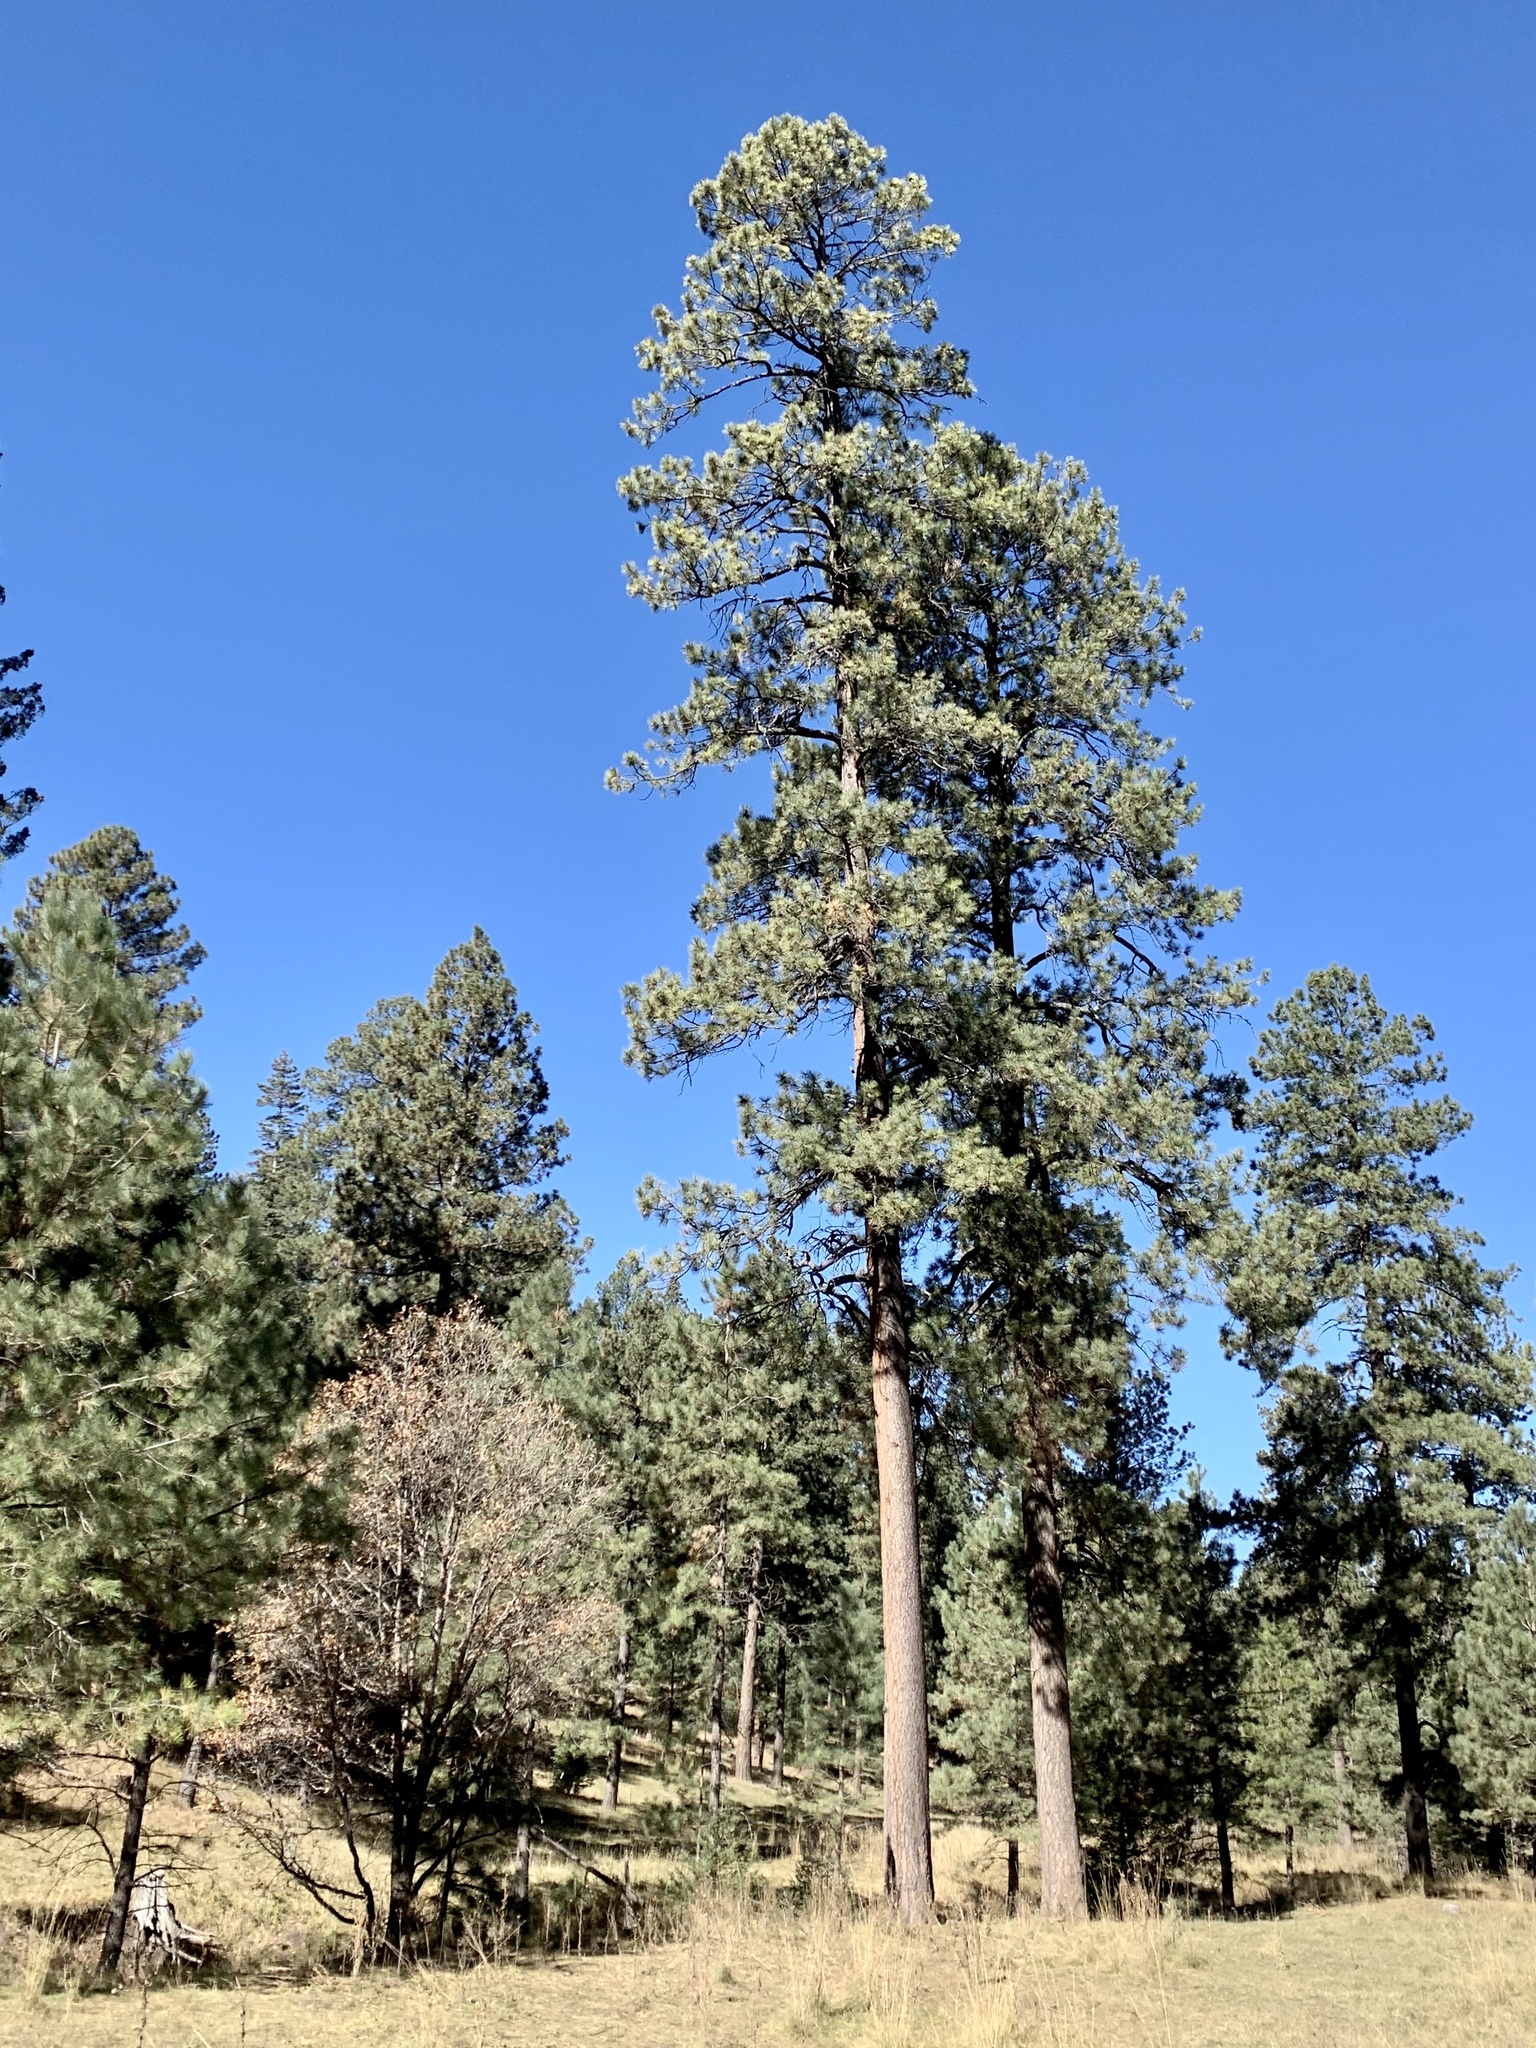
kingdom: Plantae
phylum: Tracheophyta
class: Pinopsida
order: Pinales
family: Pinaceae
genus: Pinus
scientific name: Pinus ponderosa
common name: Western yellow-pine
